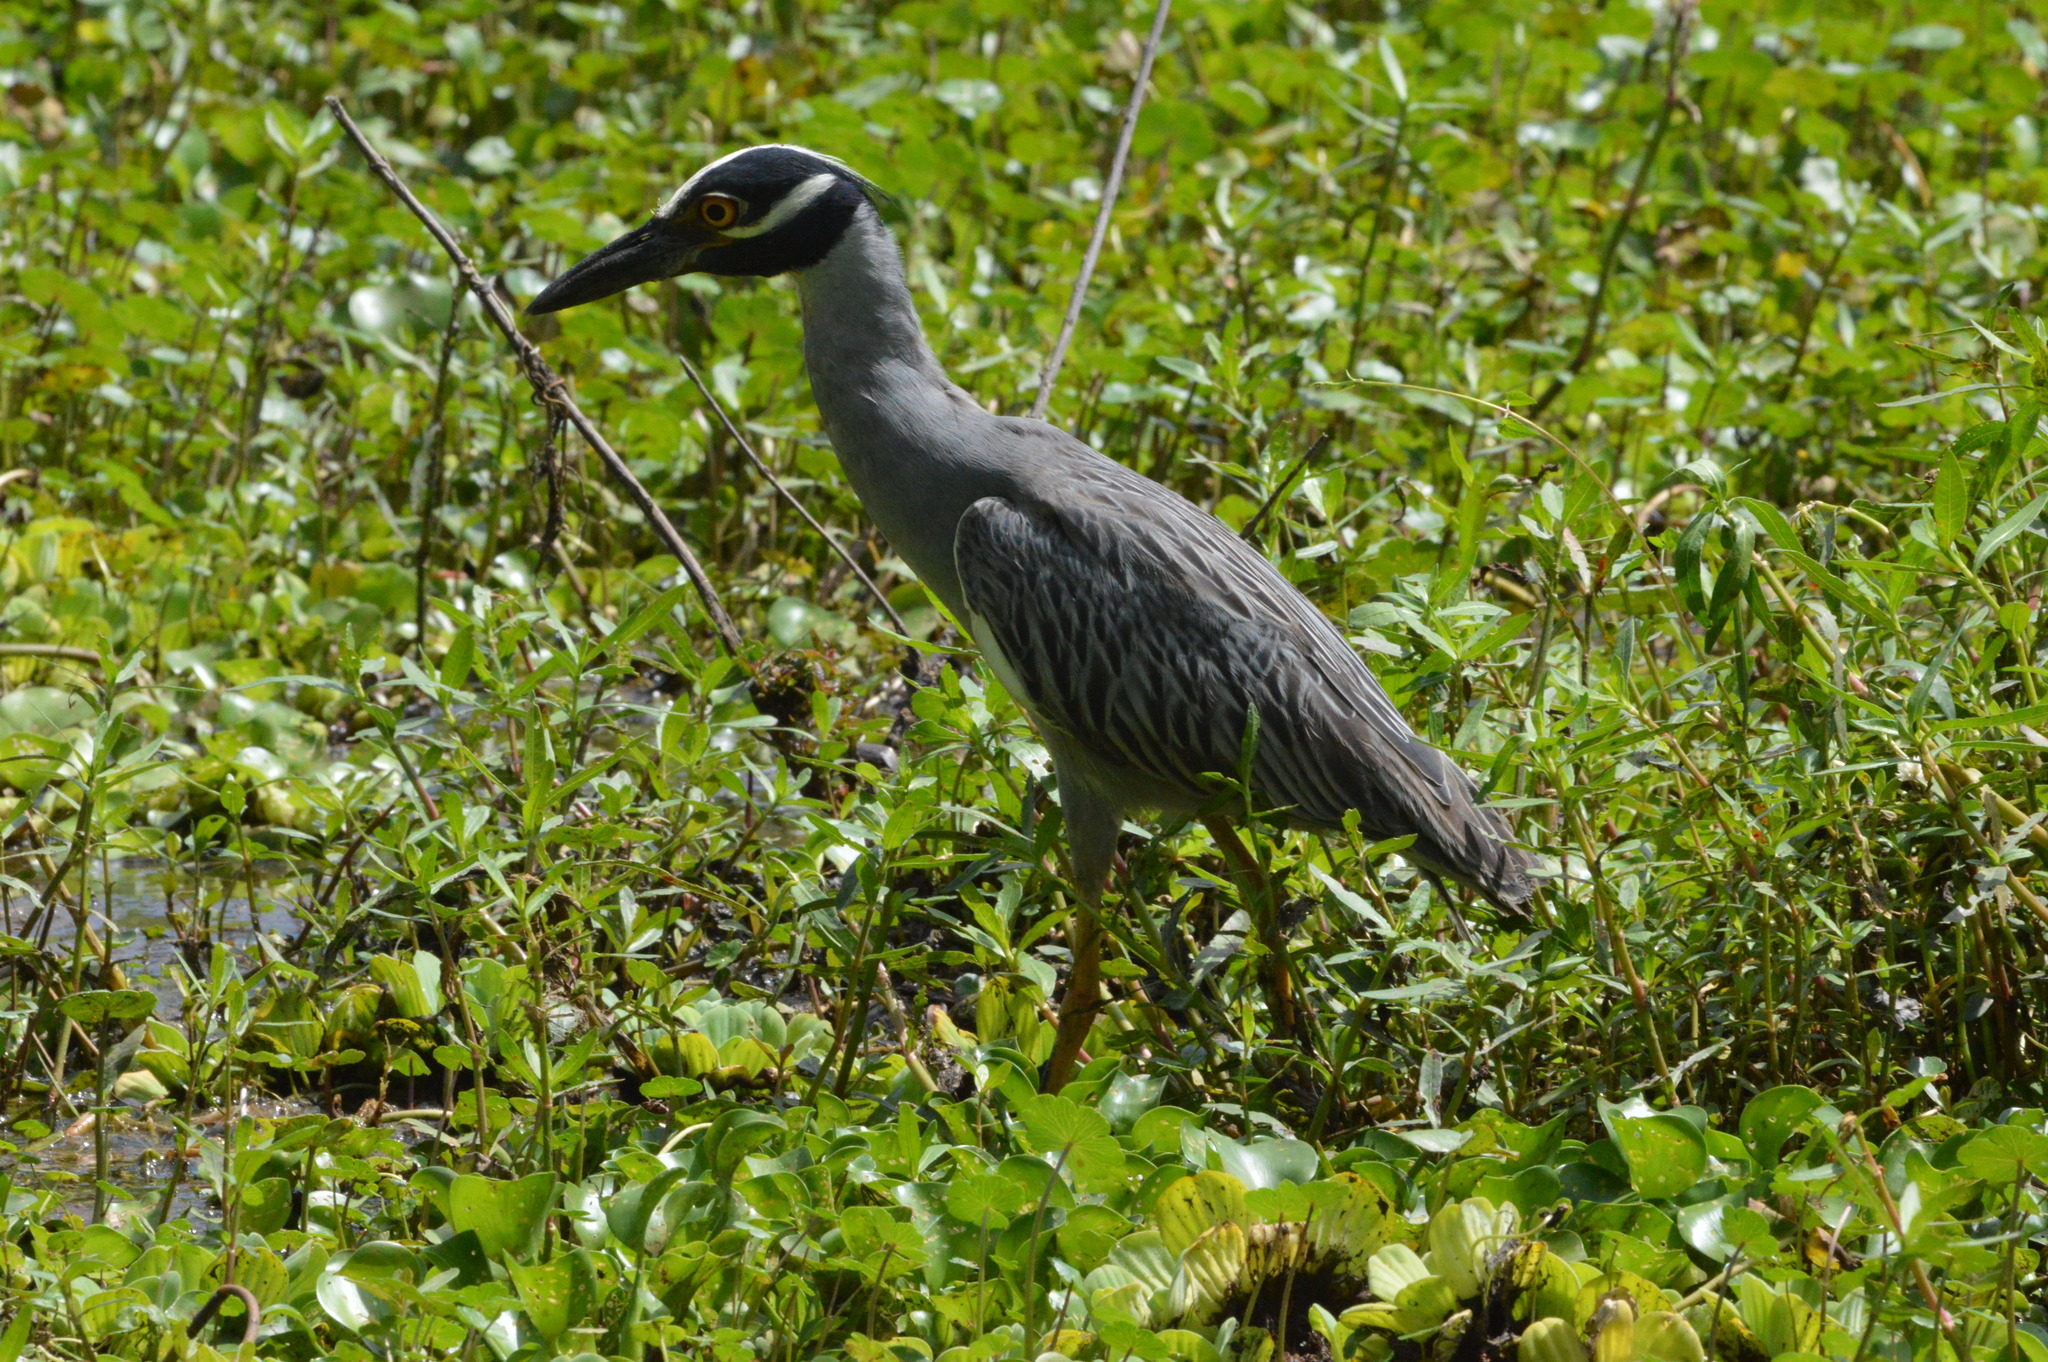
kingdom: Animalia
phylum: Chordata
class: Aves
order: Pelecaniformes
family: Ardeidae
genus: Nyctanassa
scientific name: Nyctanassa violacea
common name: Yellow-crowned night heron
